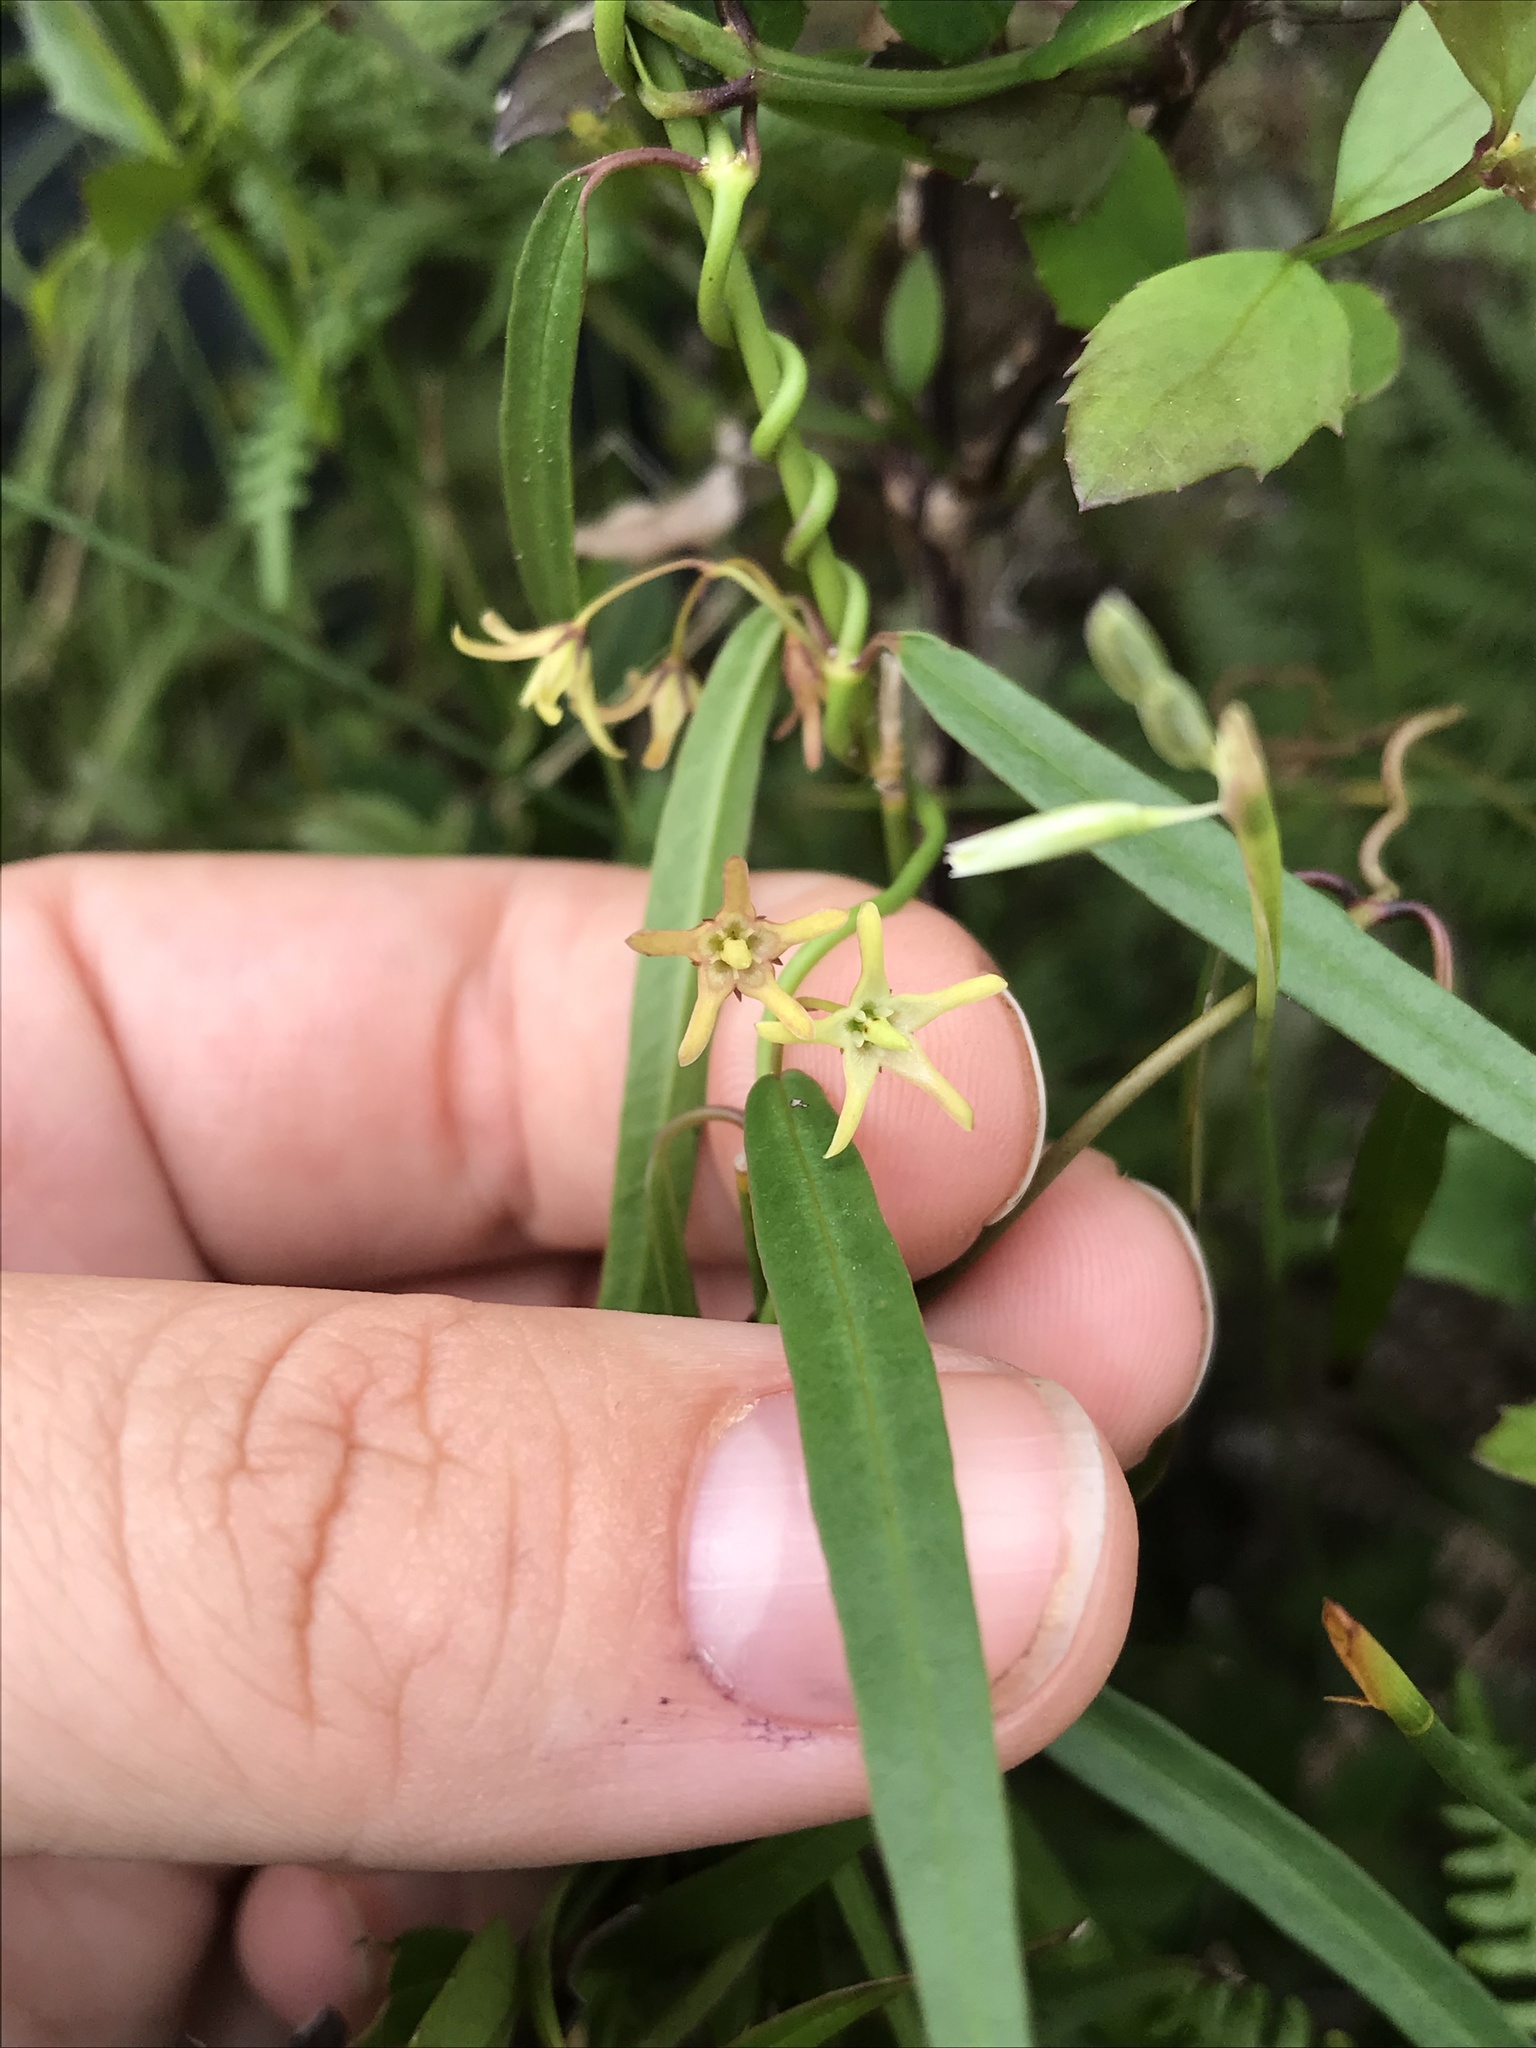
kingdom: Plantae
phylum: Tracheophyta
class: Magnoliopsida
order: Gentianales
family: Apocynaceae
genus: Oncinema
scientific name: Oncinema lineare
